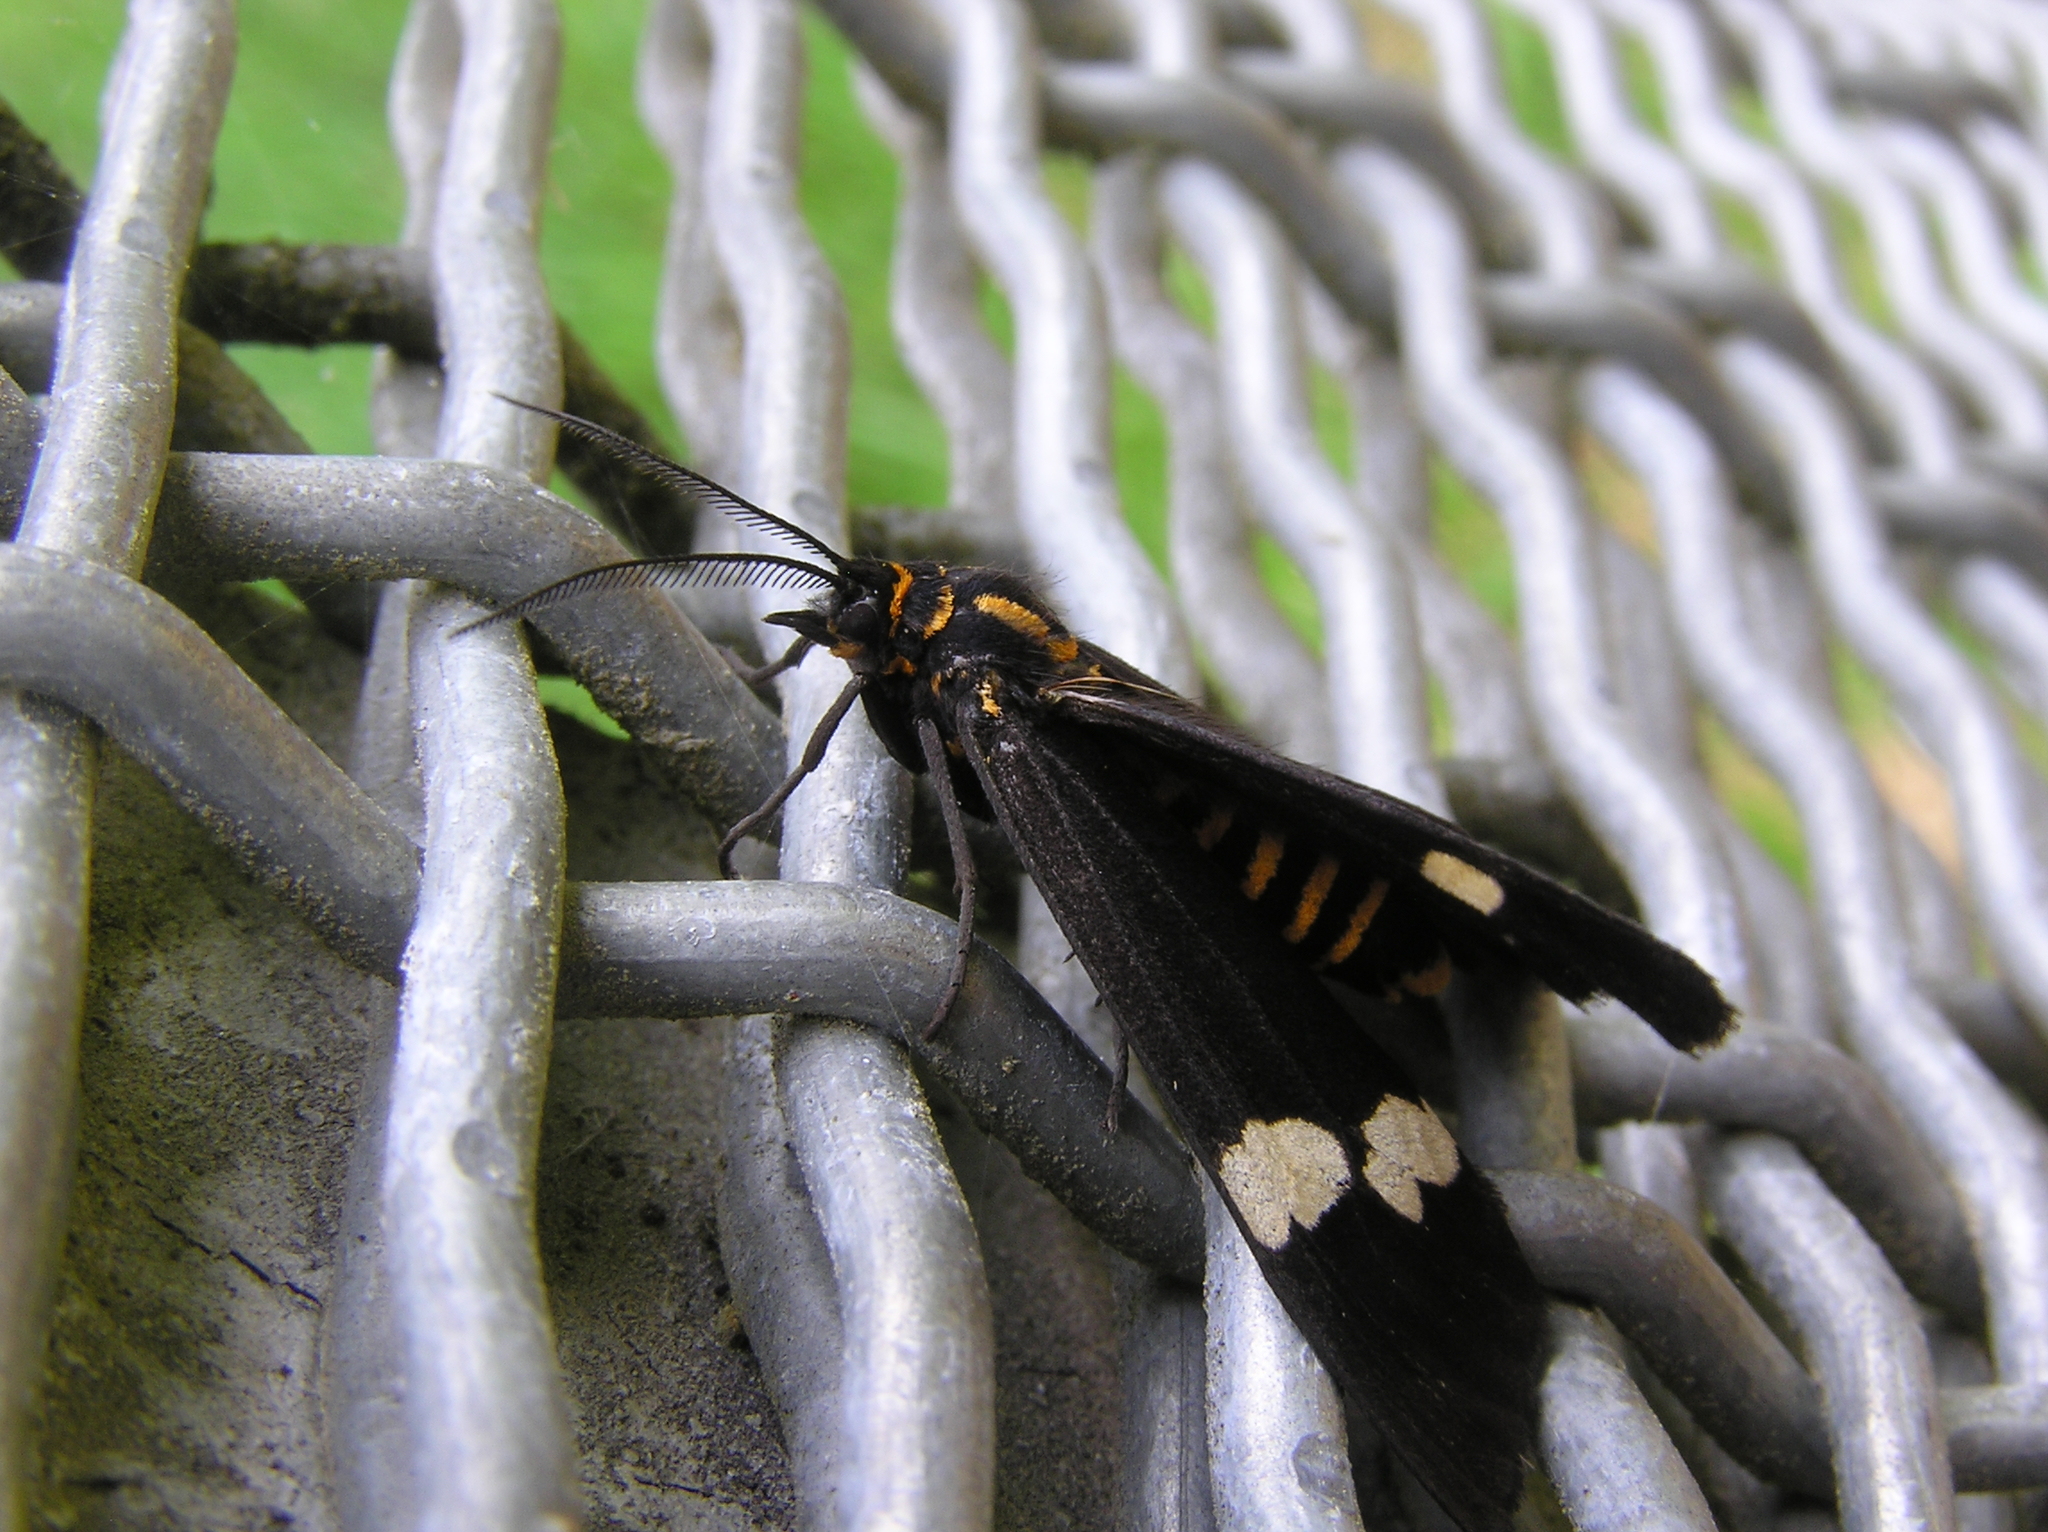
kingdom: Animalia
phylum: Arthropoda
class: Insecta
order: Lepidoptera
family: Erebidae
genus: Nyctemera
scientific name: Nyctemera annulatum
